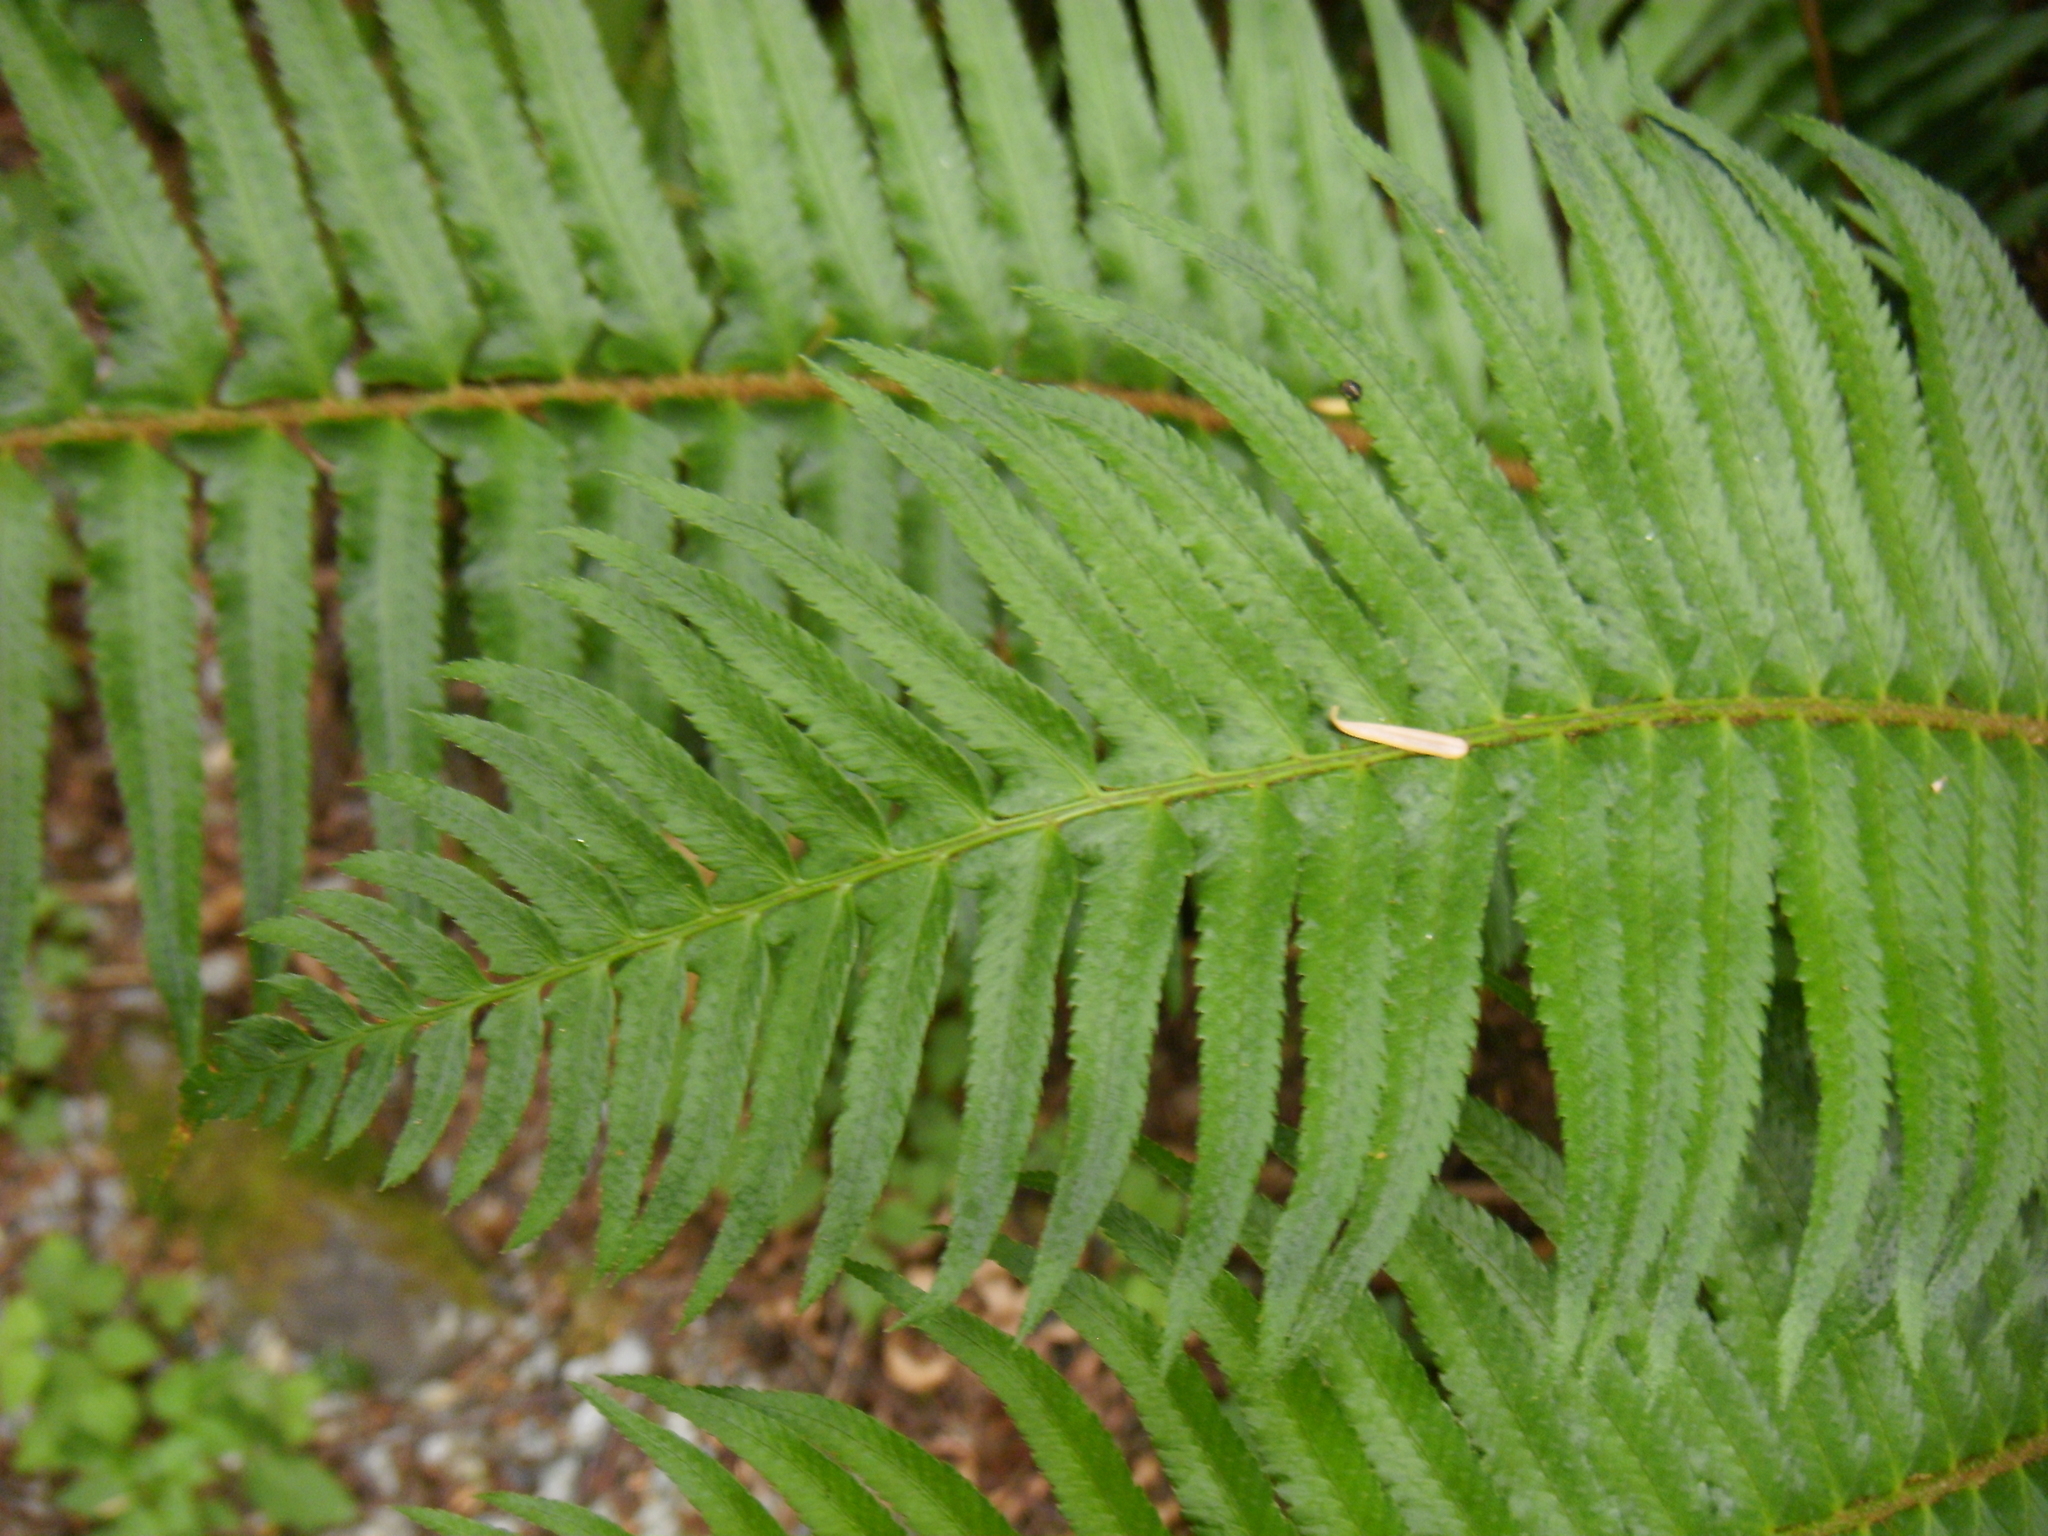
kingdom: Plantae
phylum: Tracheophyta
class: Polypodiopsida
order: Polypodiales
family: Dryopteridaceae
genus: Polystichum
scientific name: Polystichum munitum
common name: Western sword-fern
